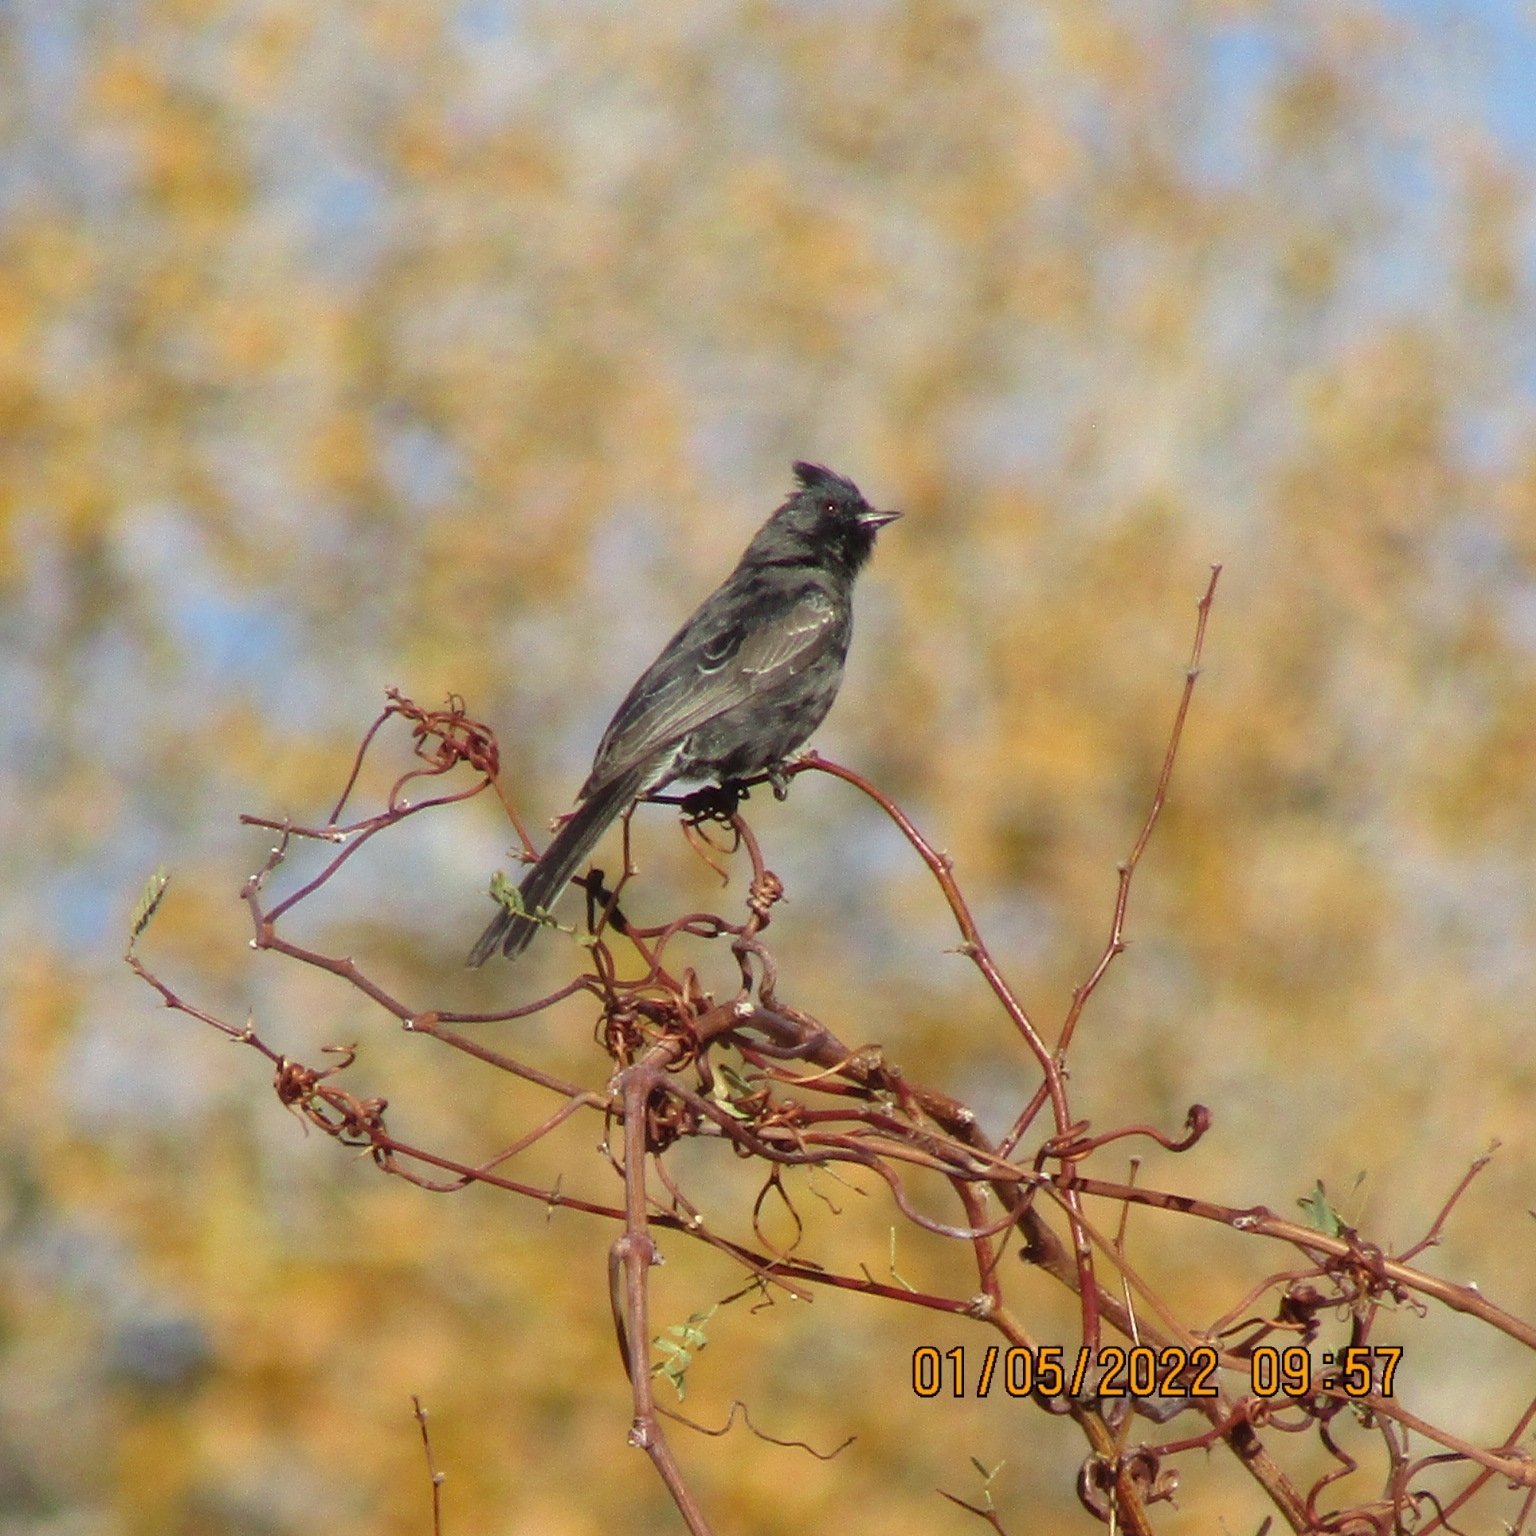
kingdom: Animalia
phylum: Chordata
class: Aves
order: Passeriformes
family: Ptilogonatidae
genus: Phainopepla
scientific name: Phainopepla nitens
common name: Phainopepla
